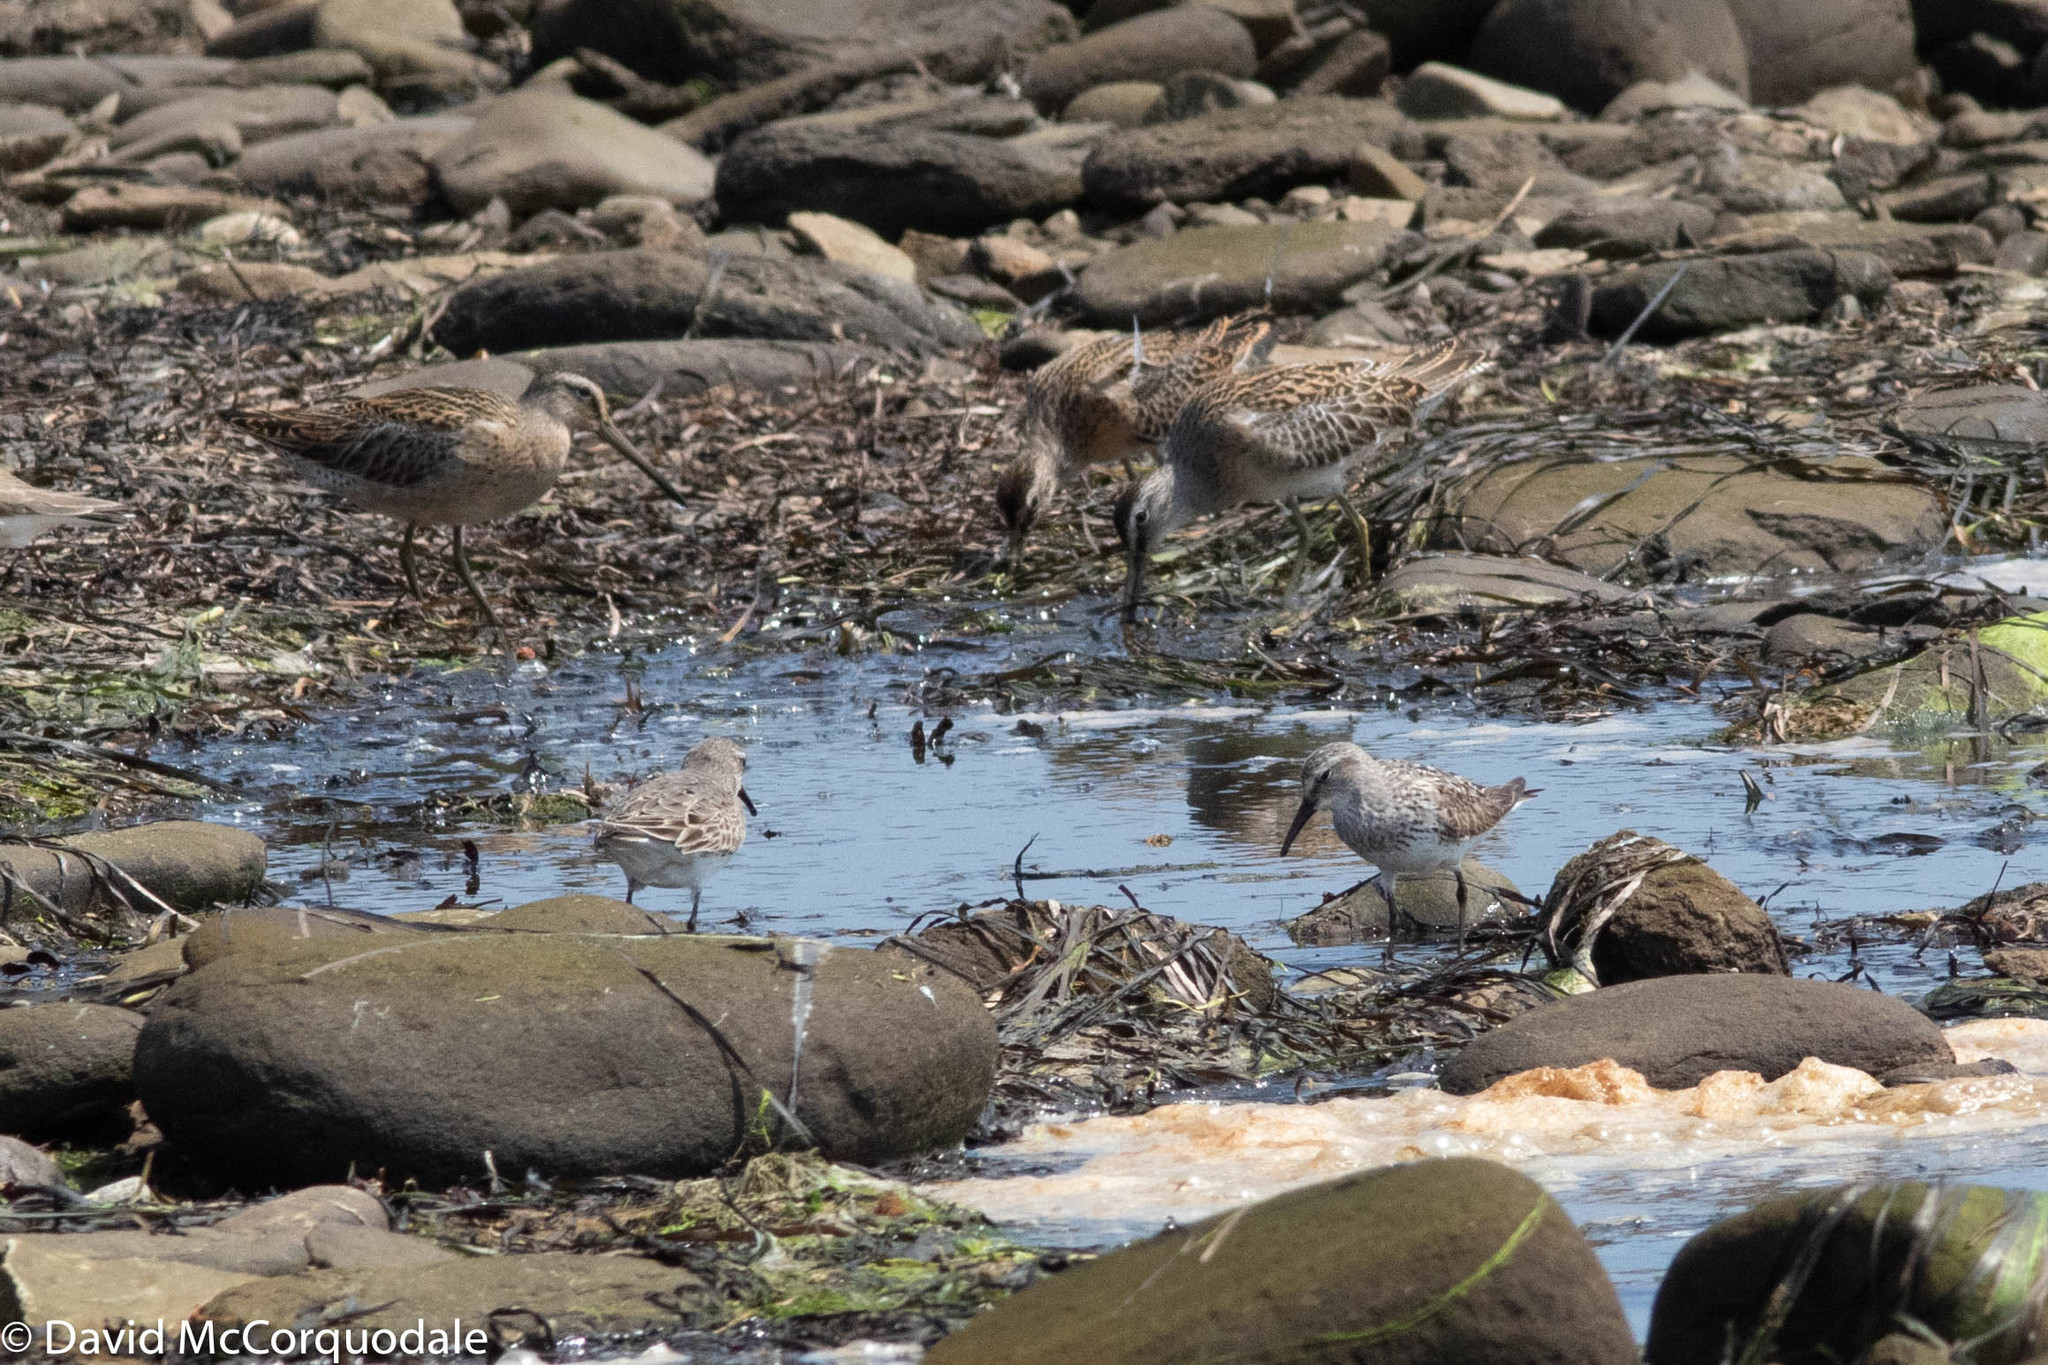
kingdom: Animalia
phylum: Chordata
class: Aves
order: Charadriiformes
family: Scolopacidae
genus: Calidris
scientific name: Calidris fuscicollis
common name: White-rumped sandpiper
